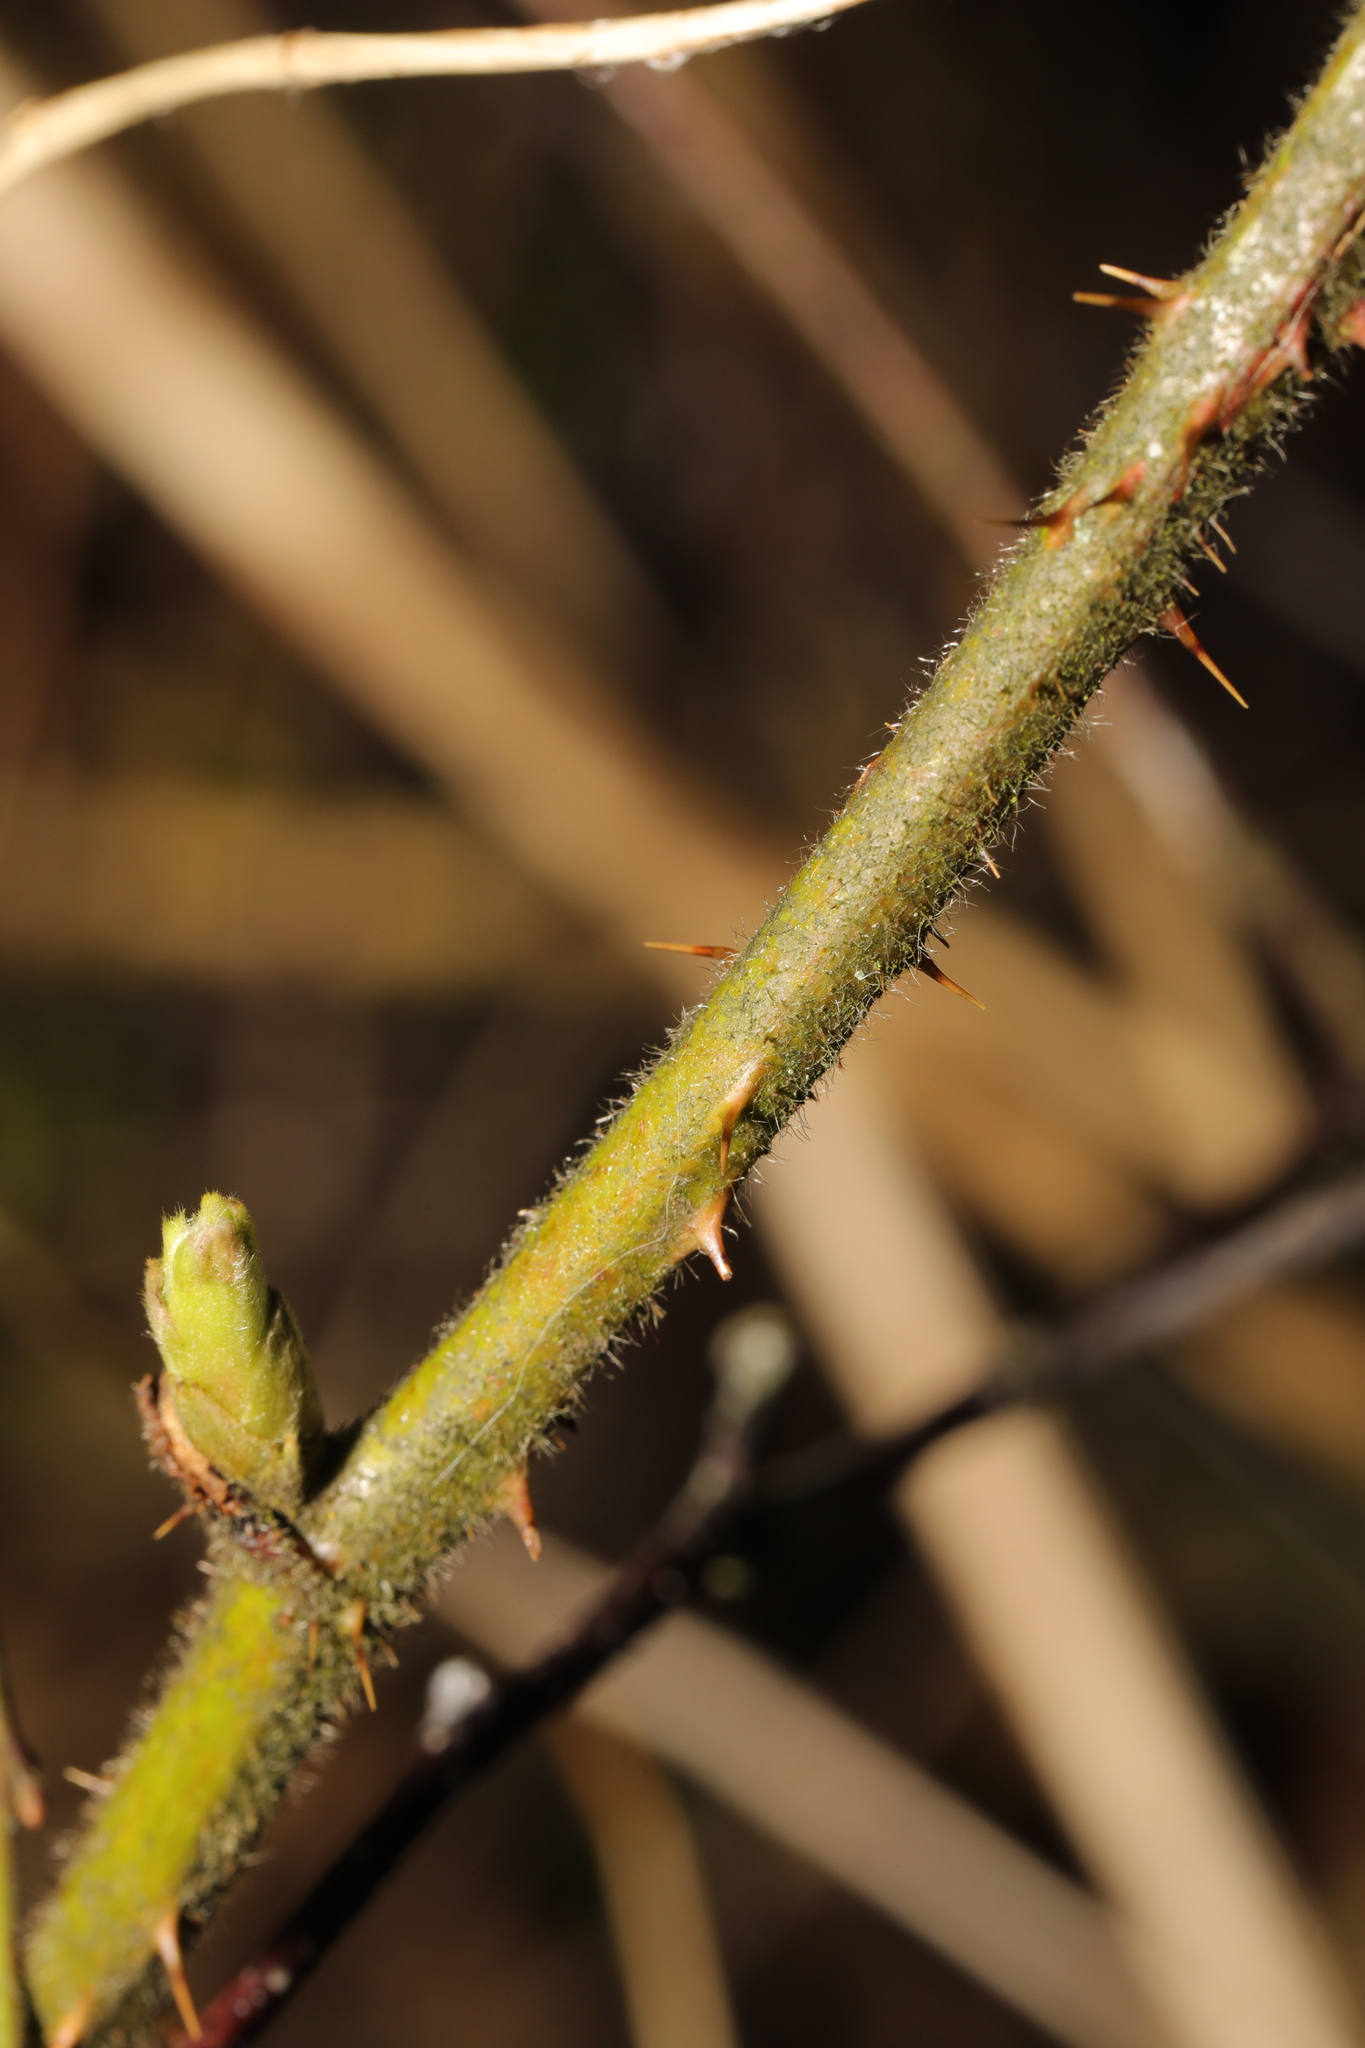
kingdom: Plantae
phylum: Tracheophyta
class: Magnoliopsida
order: Rosales
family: Rosaceae
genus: Rubus
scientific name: Rubus dasyphyllus
